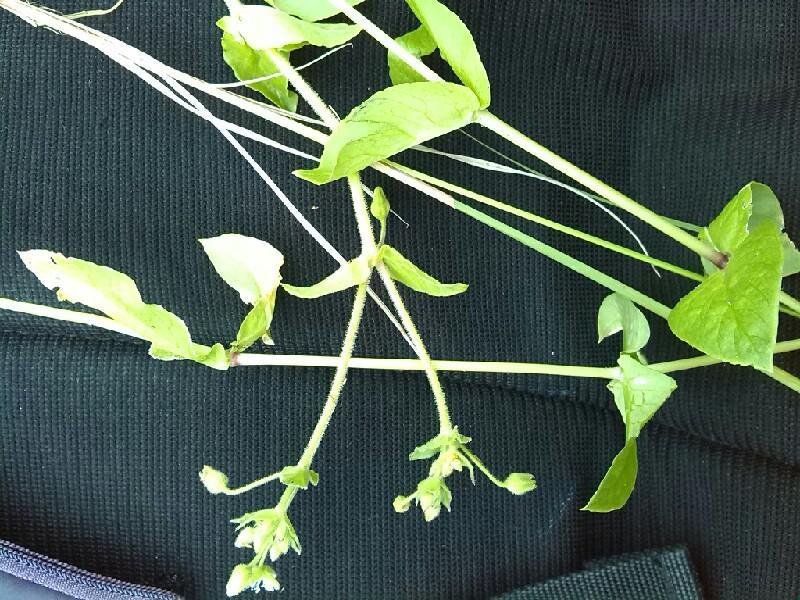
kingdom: Plantae
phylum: Tracheophyta
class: Magnoliopsida
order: Caryophyllales
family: Caryophyllaceae
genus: Stellaria
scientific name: Stellaria aquatica
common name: Water chickweed
